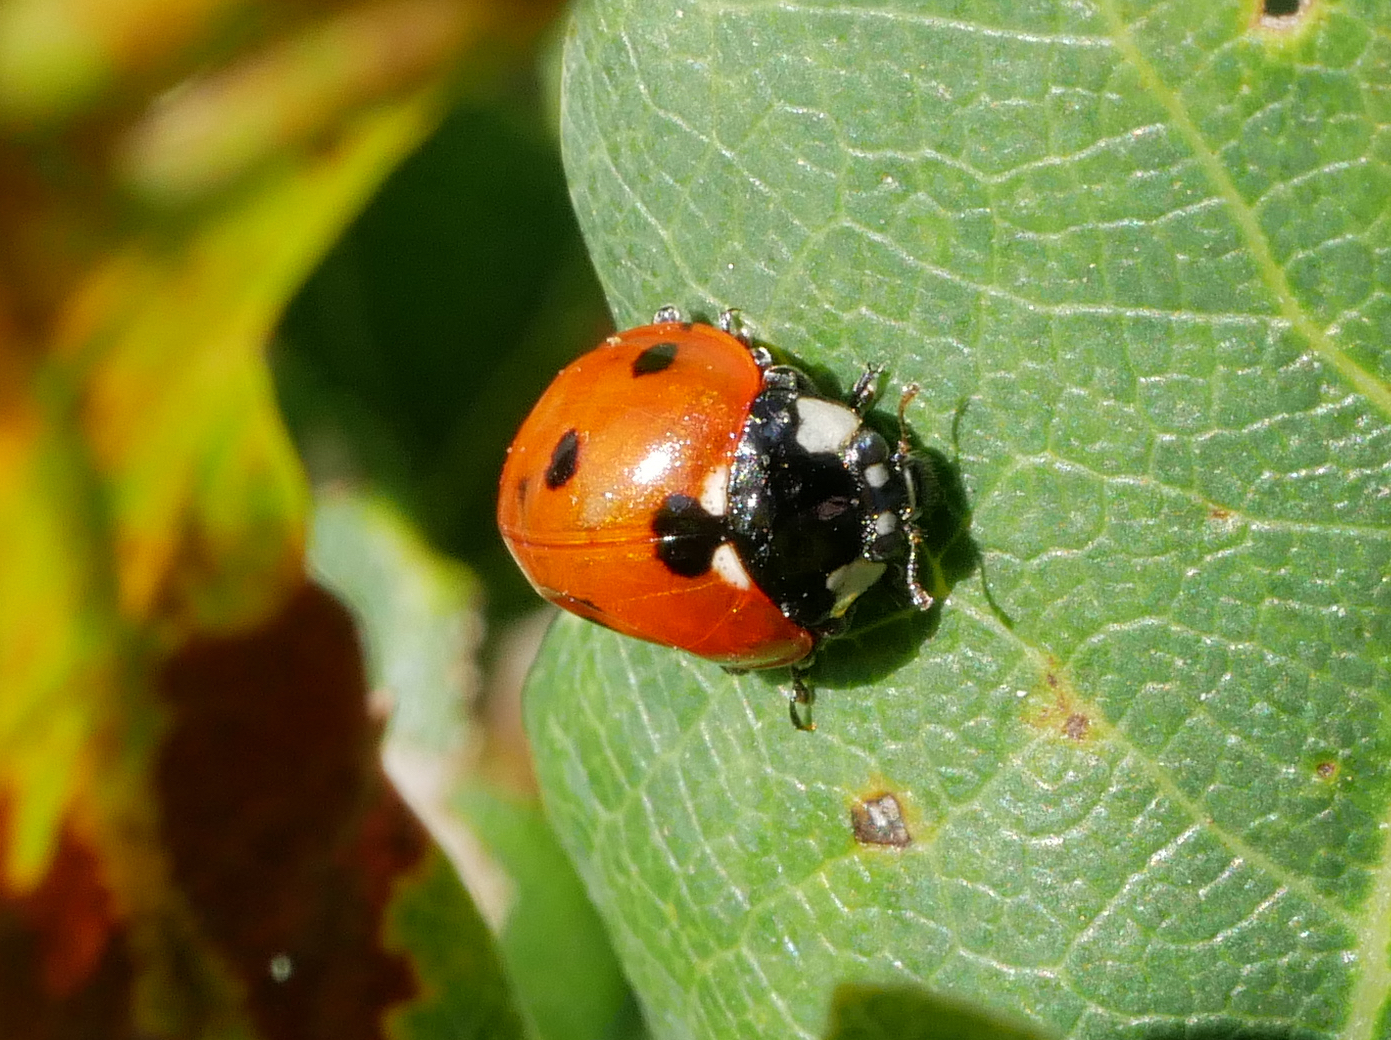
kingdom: Animalia
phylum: Arthropoda
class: Insecta
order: Coleoptera
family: Coccinellidae
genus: Coccinella
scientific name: Coccinella septempunctata
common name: Sevenspotted lady beetle
